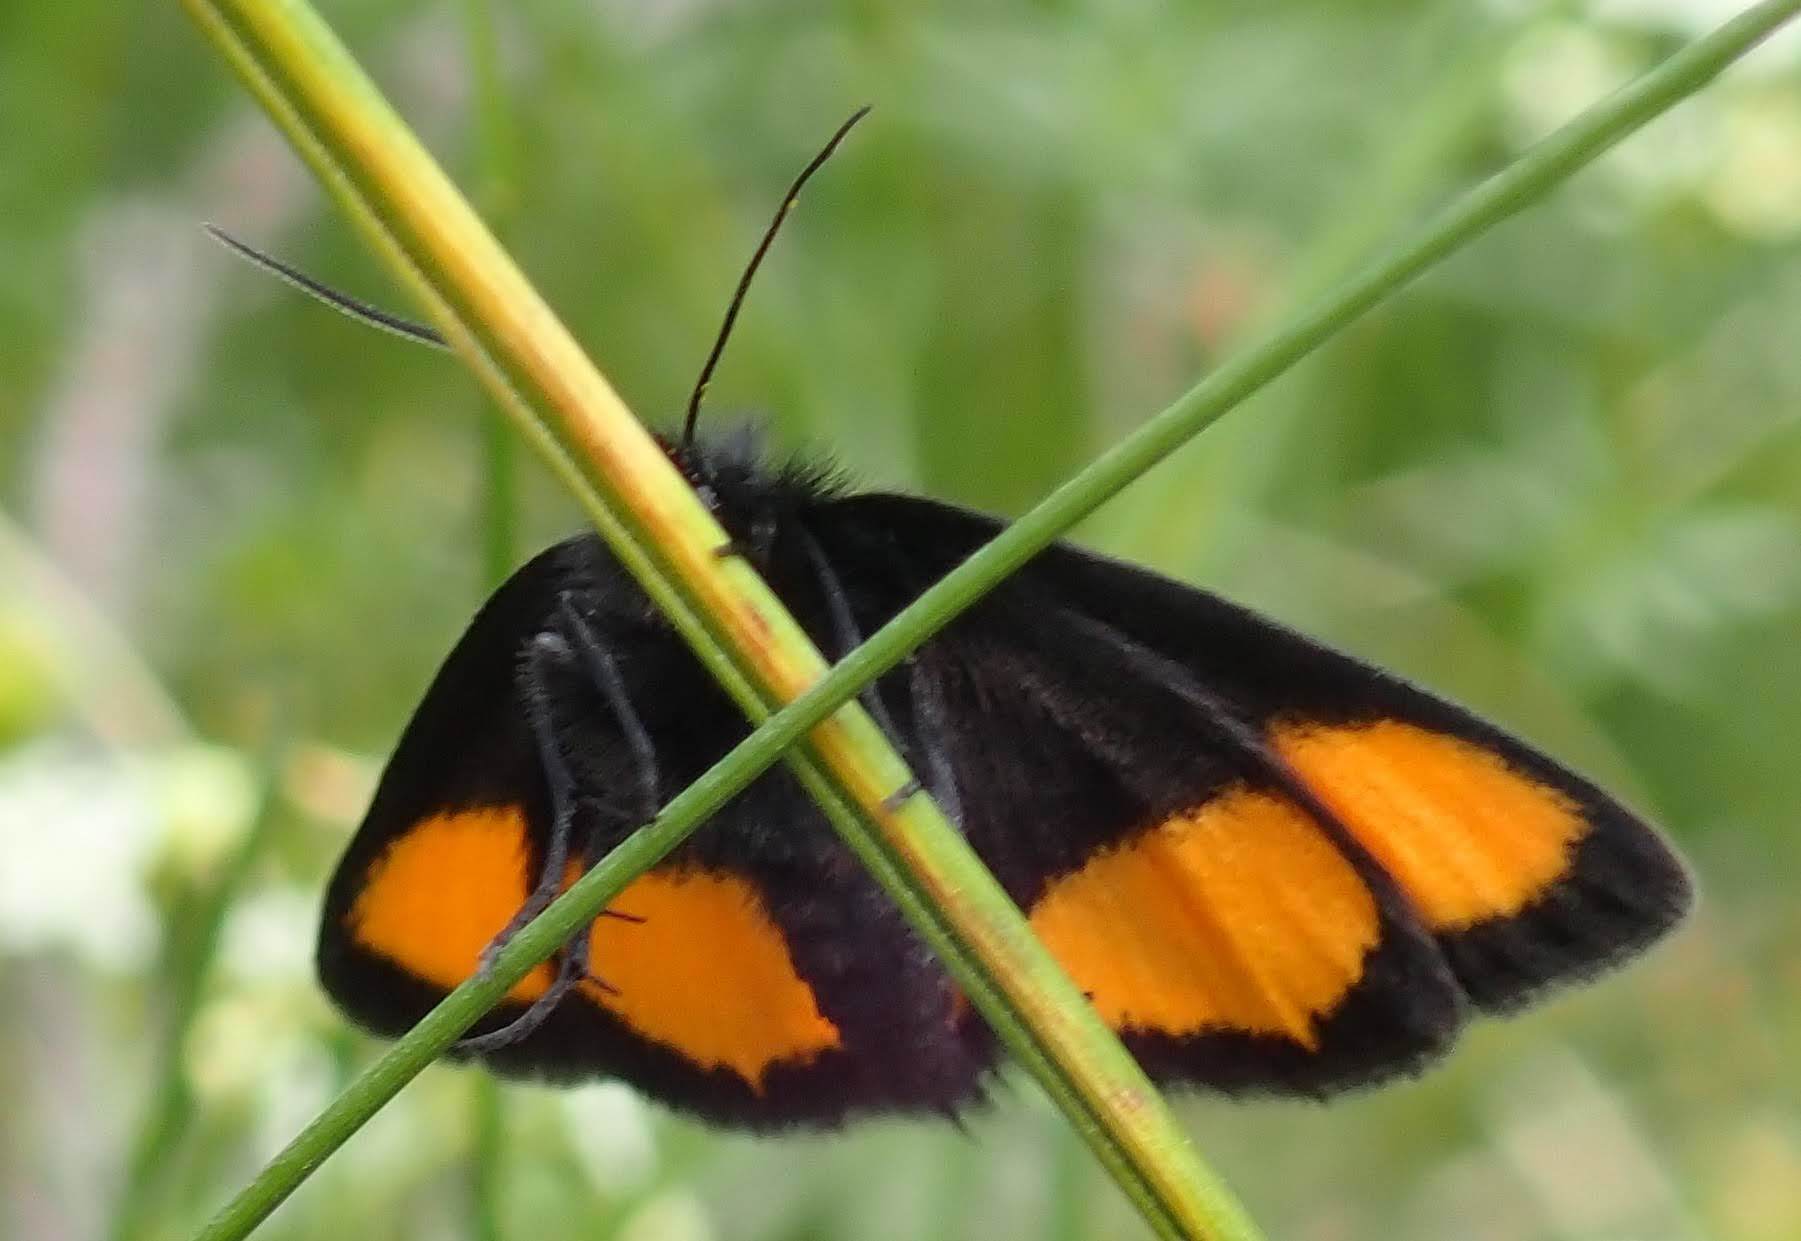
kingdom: Animalia
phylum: Arthropoda
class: Insecta
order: Lepidoptera
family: Geometridae
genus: Psodos
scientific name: Psodos quadrifaria
